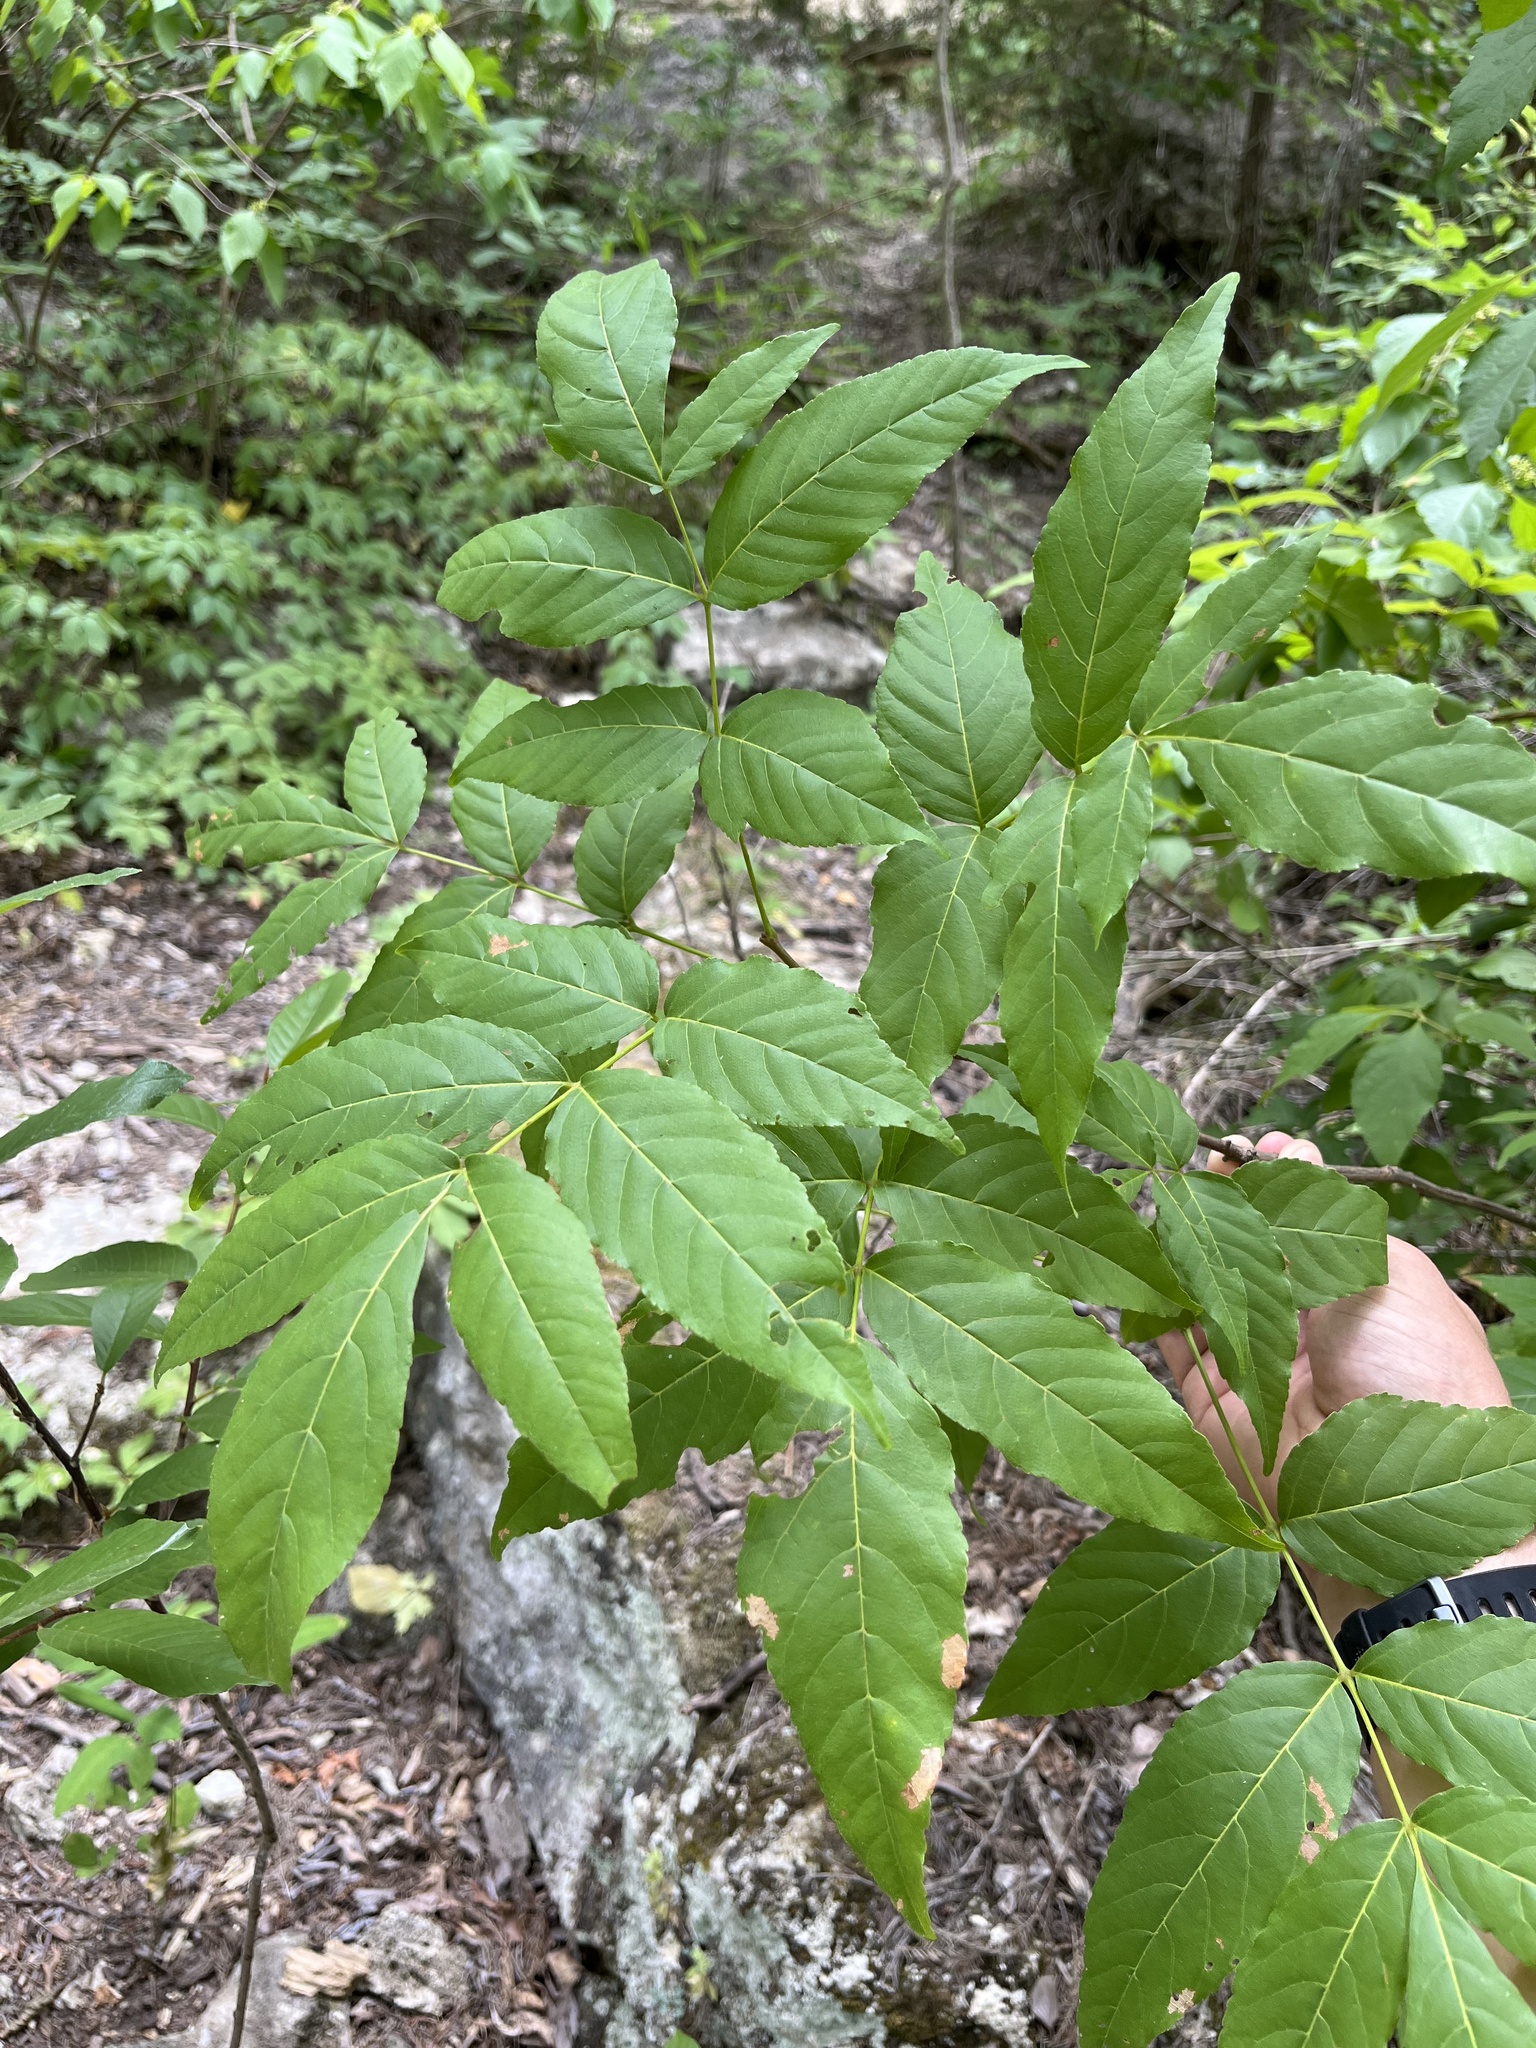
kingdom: Plantae
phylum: Tracheophyta
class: Magnoliopsida
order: Sapindales
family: Sapindaceae
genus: Ungnadia
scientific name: Ungnadia speciosa
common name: Texas-buckeye
